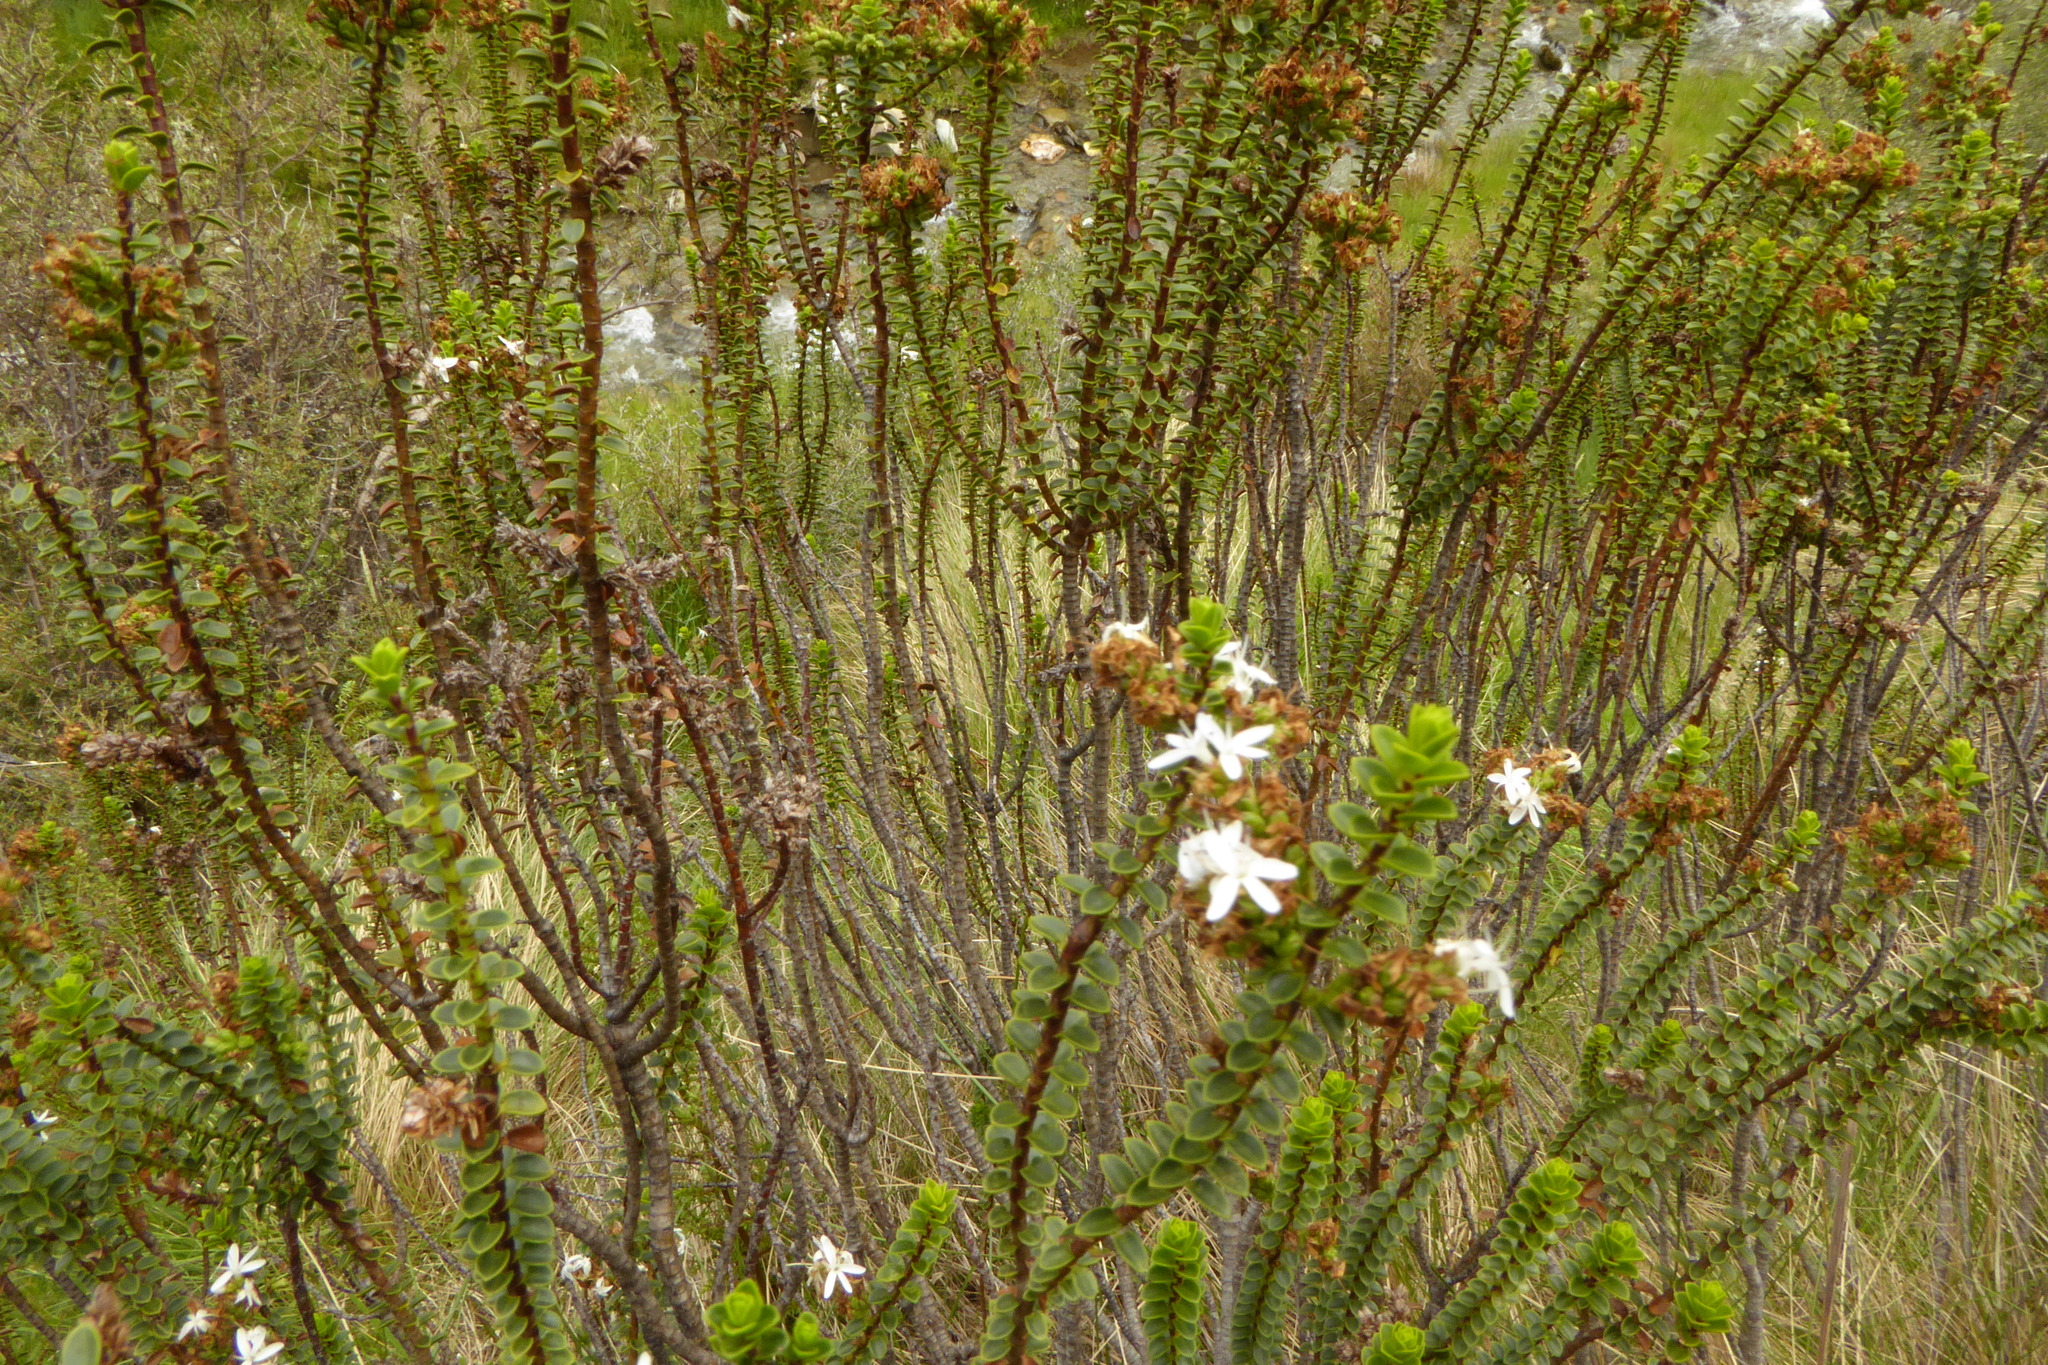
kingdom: Plantae
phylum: Tracheophyta
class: Magnoliopsida
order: Lamiales
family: Plantaginaceae
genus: Veronica
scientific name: Veronica pauciramosa
